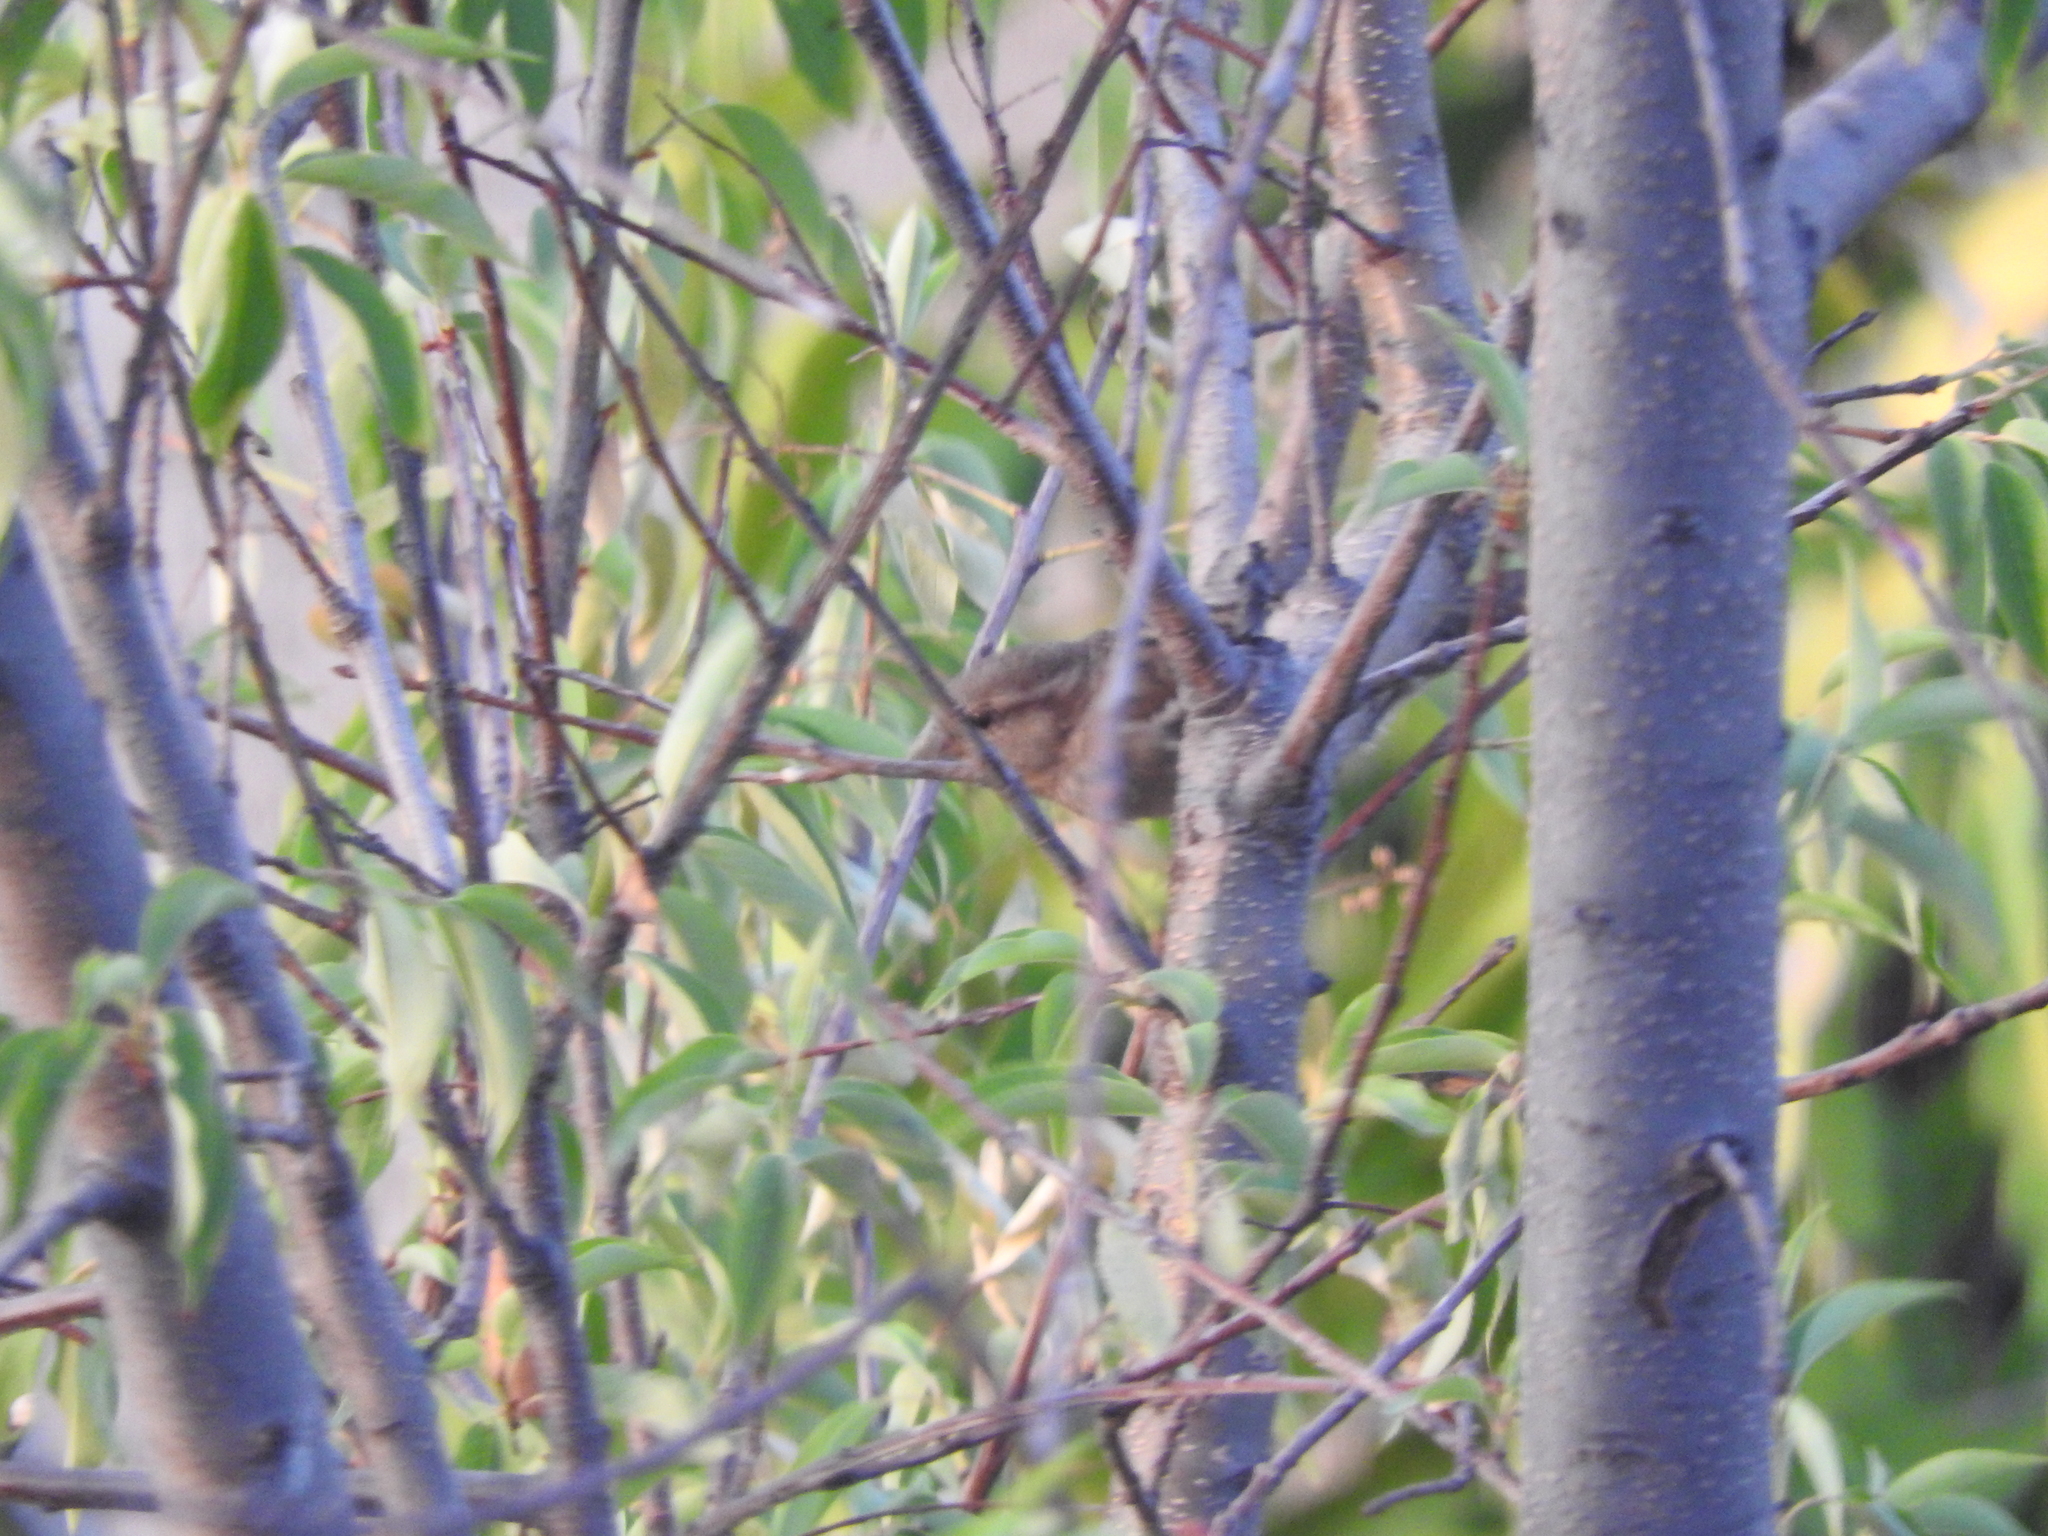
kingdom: Animalia
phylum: Chordata
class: Aves
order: Passeriformes
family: Passeridae
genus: Passer
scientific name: Passer domesticus
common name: House sparrow
